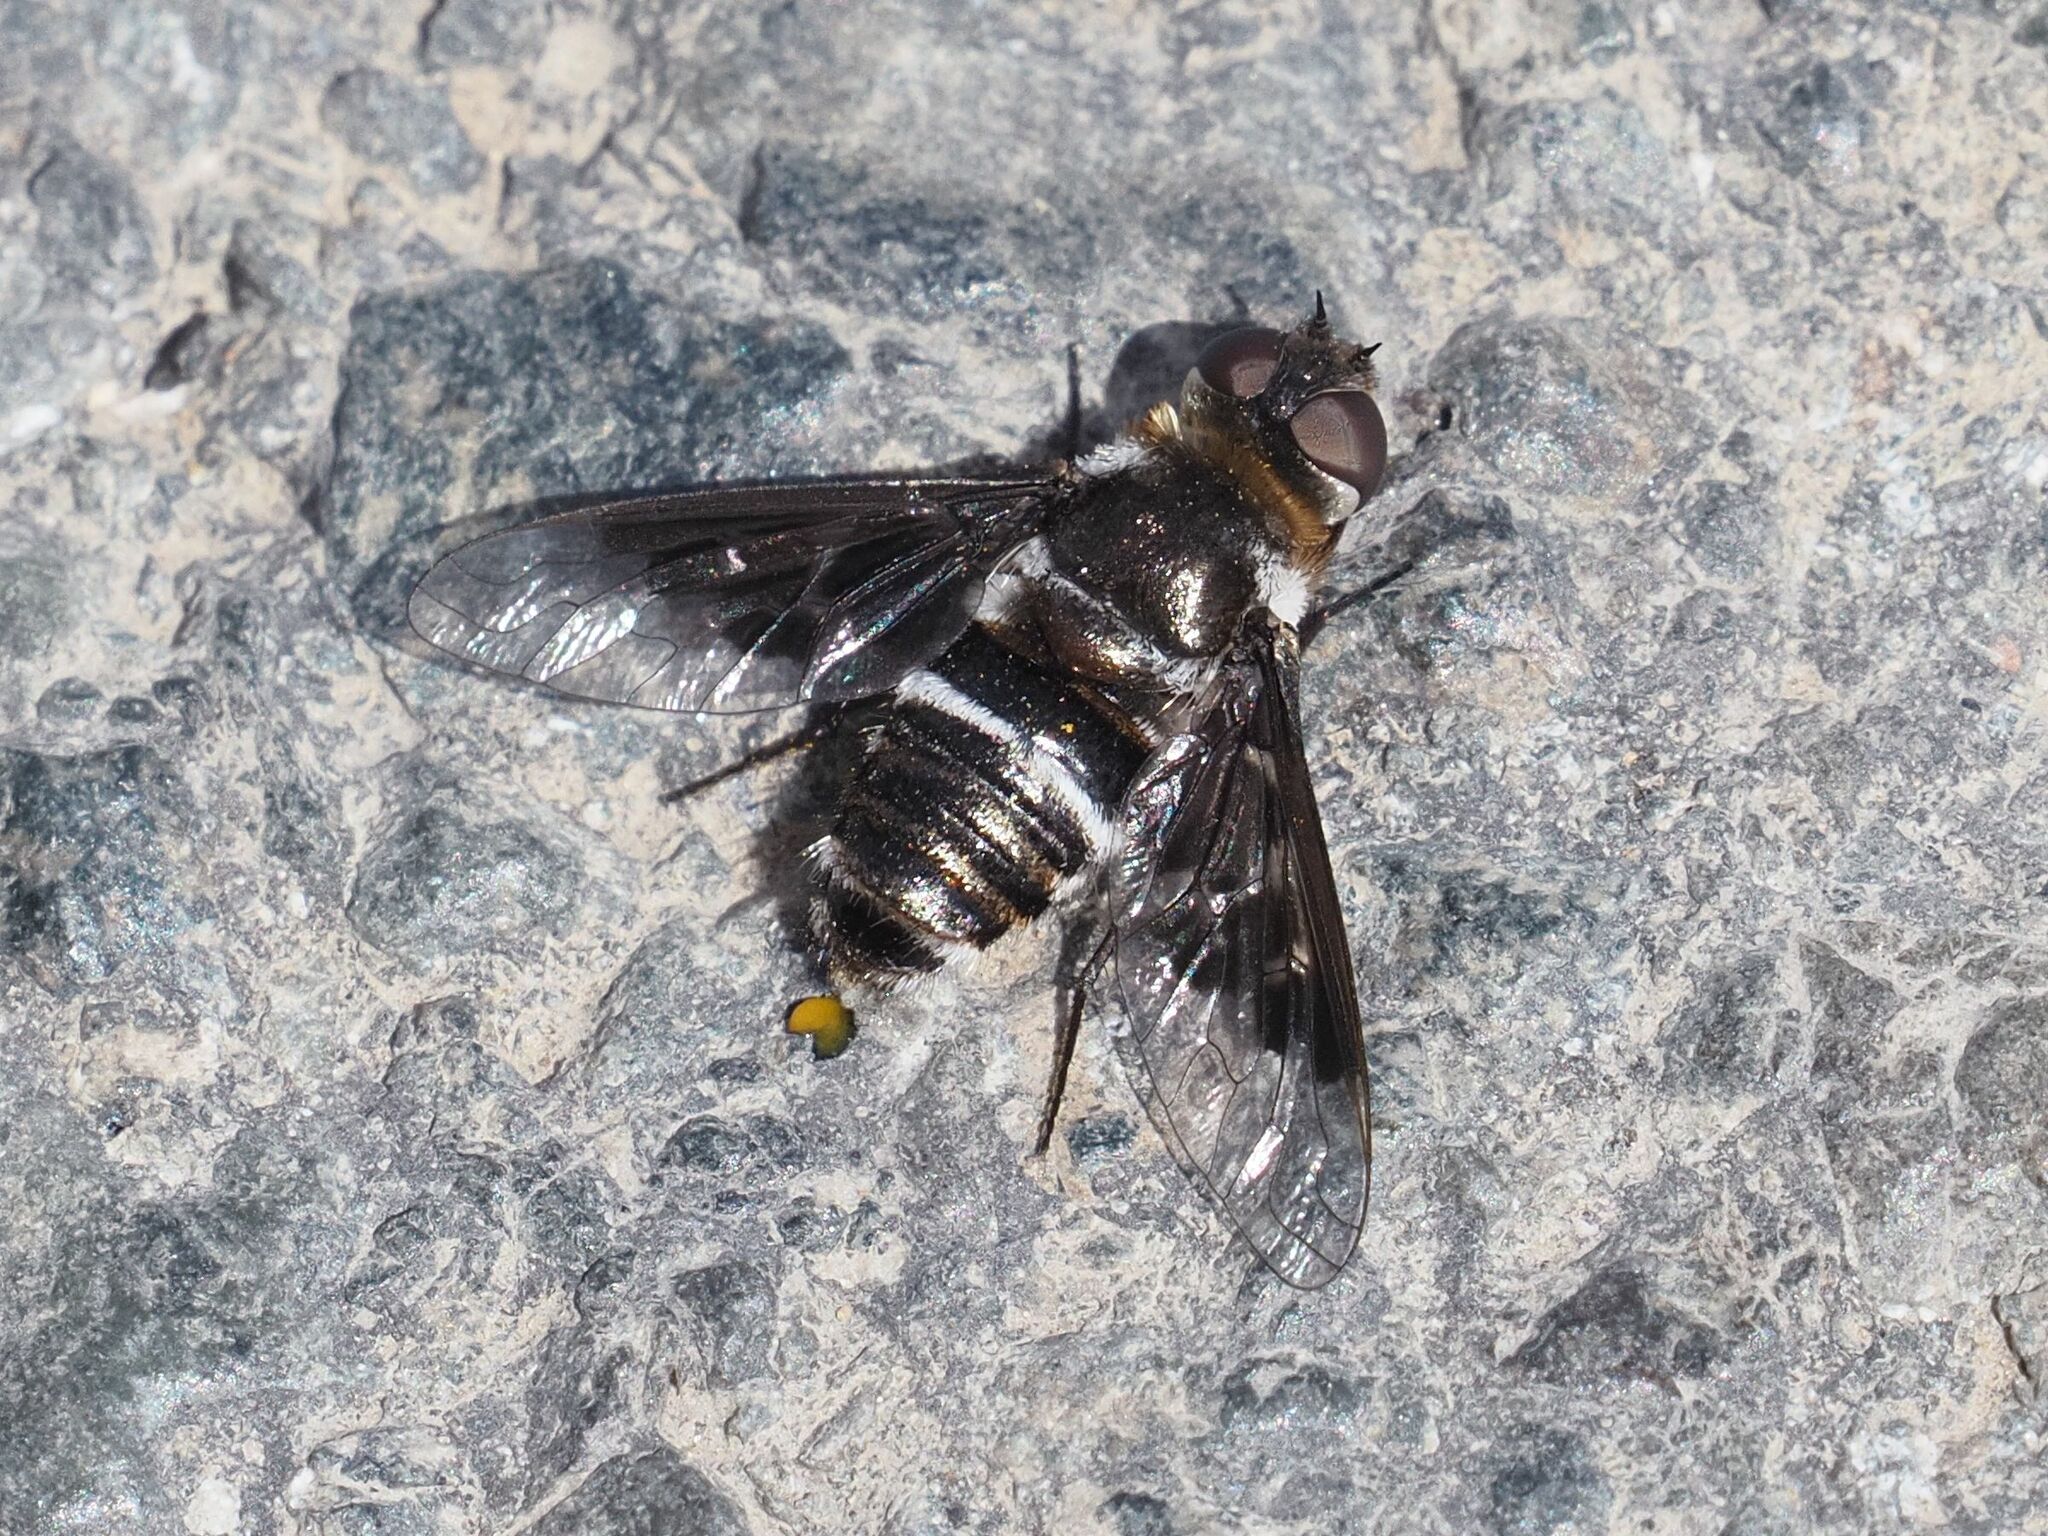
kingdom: Animalia
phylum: Arthropoda
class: Insecta
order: Diptera
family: Bombyliidae
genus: Thyridanthrax
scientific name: Thyridanthrax indigenus
